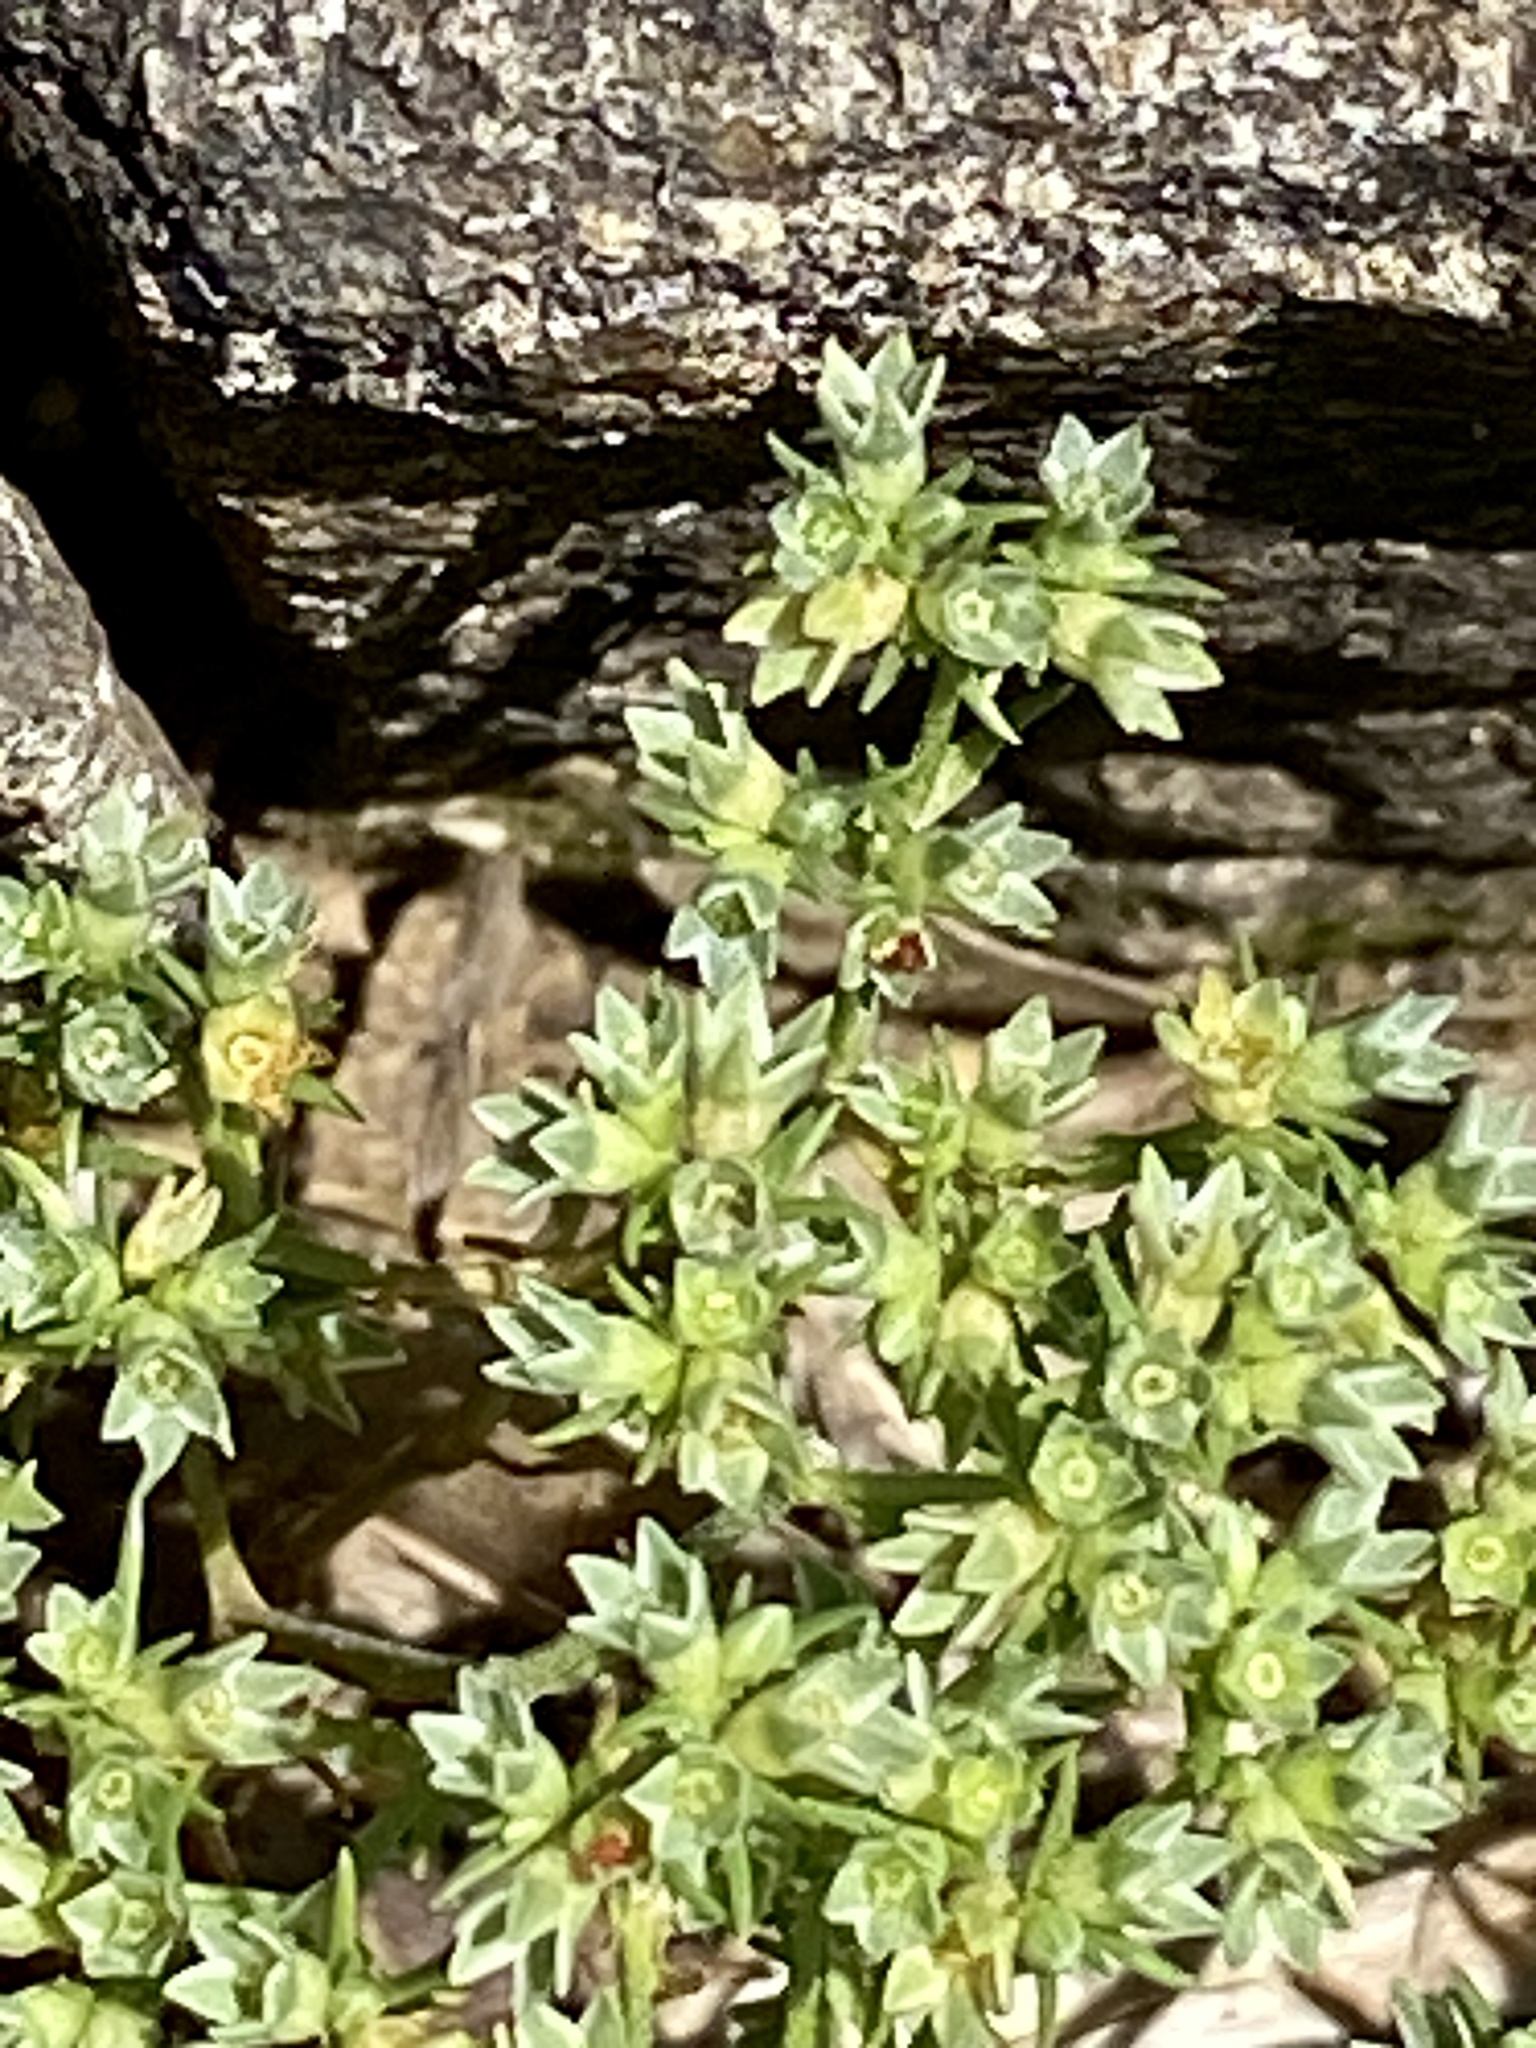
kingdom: Plantae
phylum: Tracheophyta
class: Magnoliopsida
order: Caryophyllales
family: Caryophyllaceae
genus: Scleranthus
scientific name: Scleranthus annuus
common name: Annual knawel
